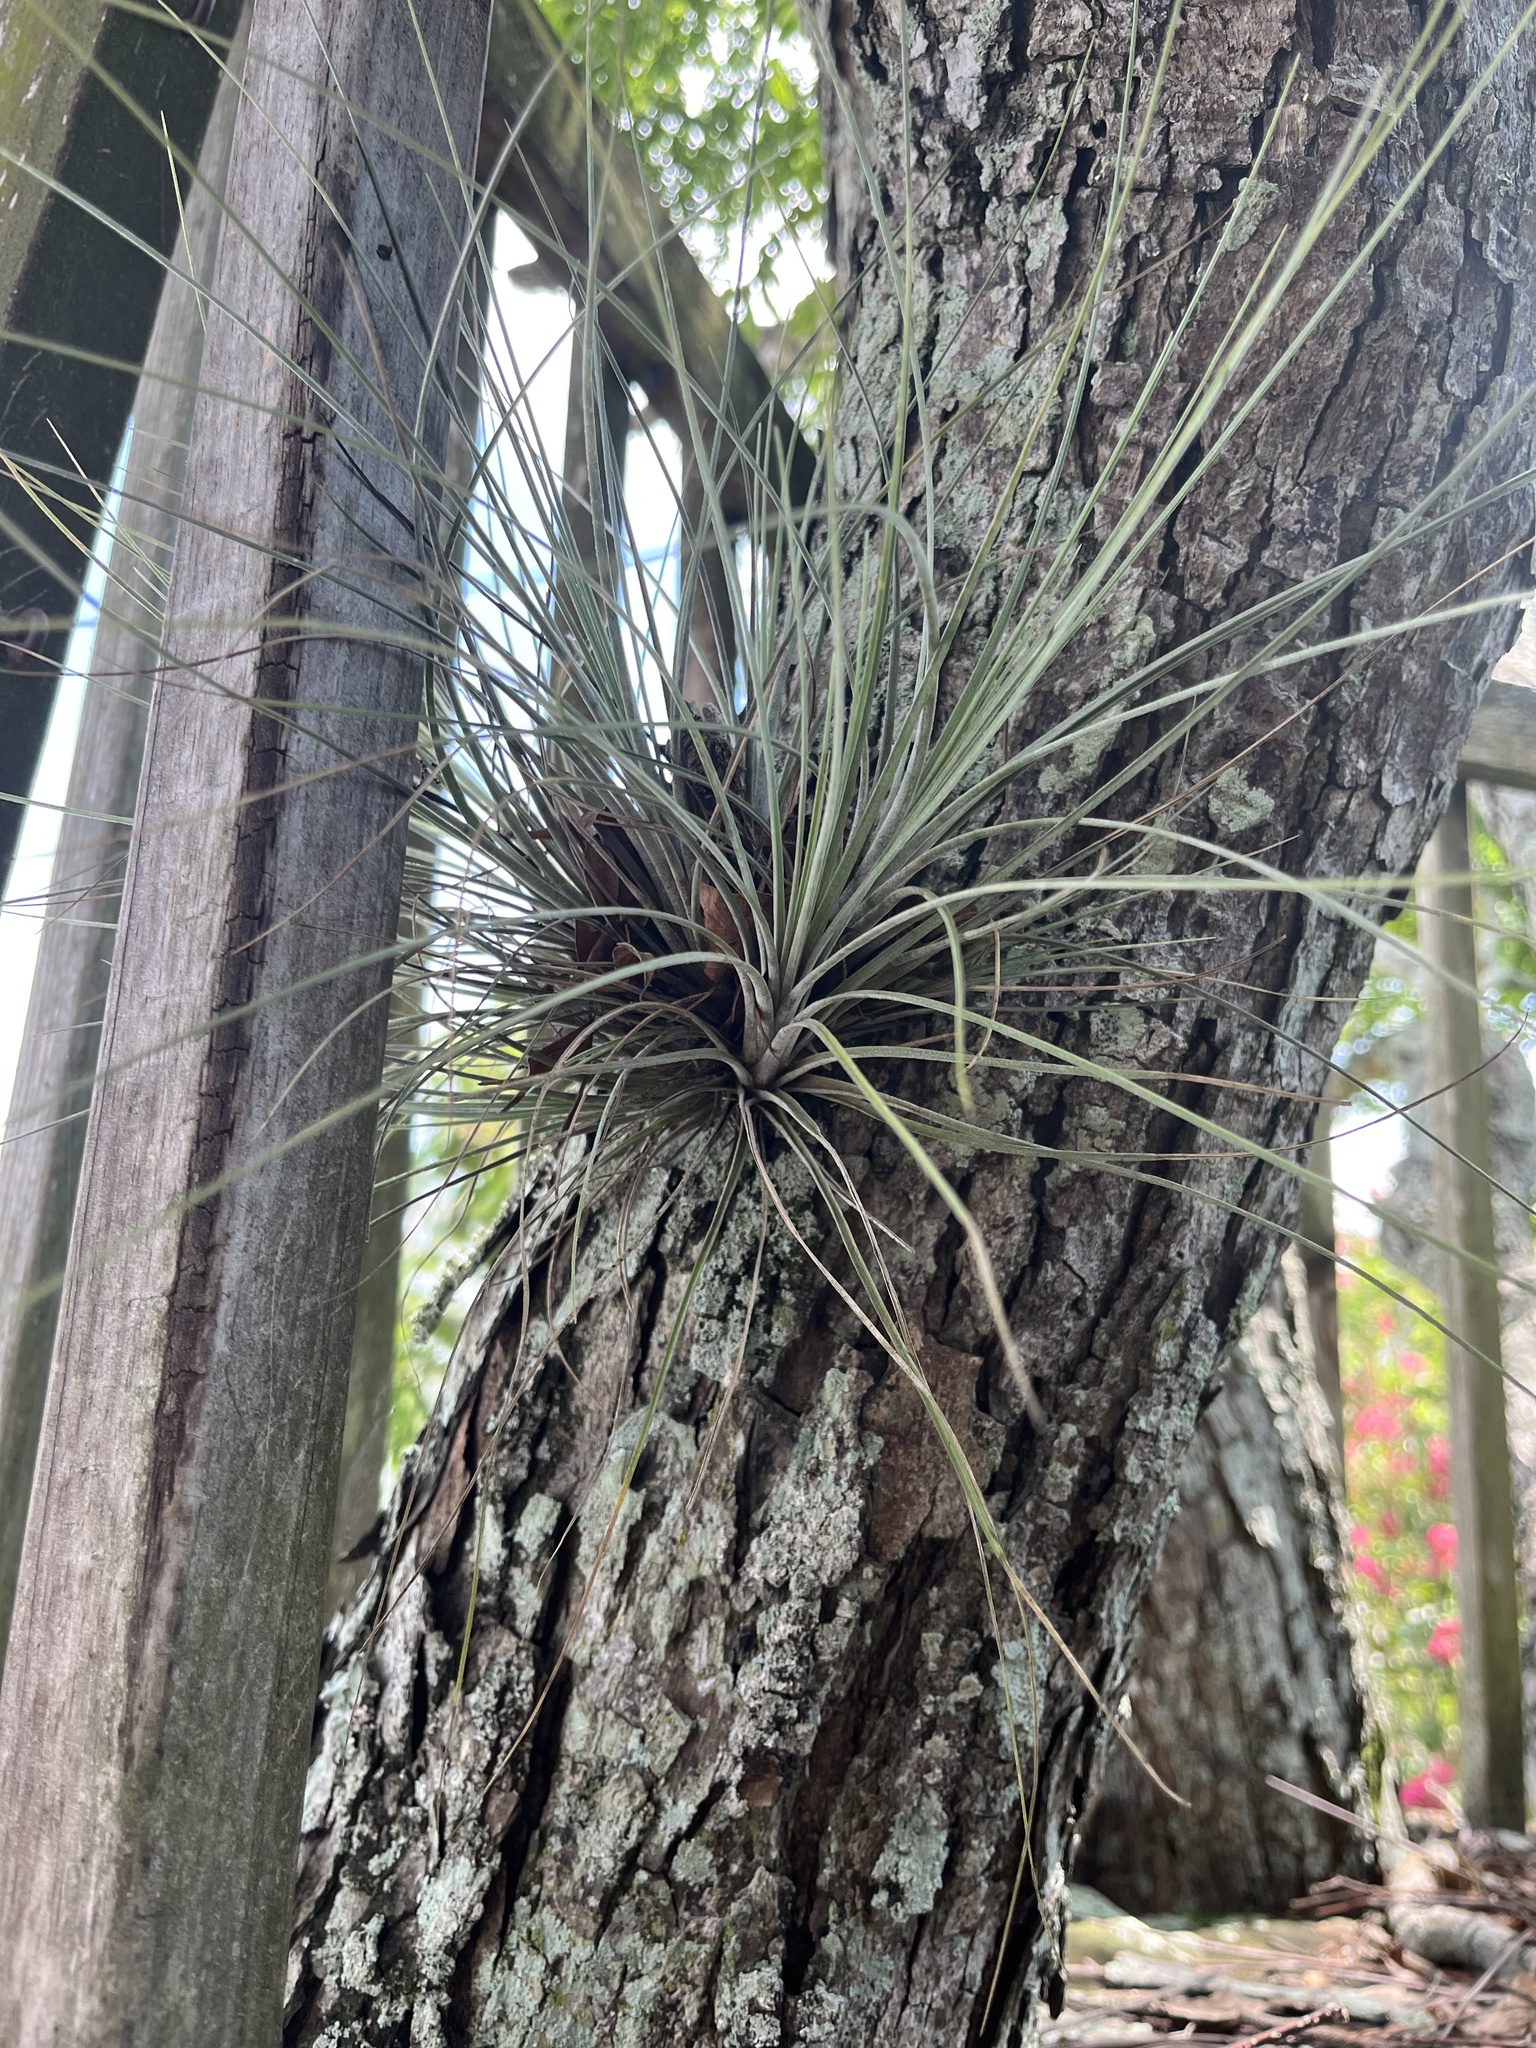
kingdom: Plantae
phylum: Tracheophyta
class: Liliopsida
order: Poales
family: Bromeliaceae
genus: Tillandsia
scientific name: Tillandsia bartramii
